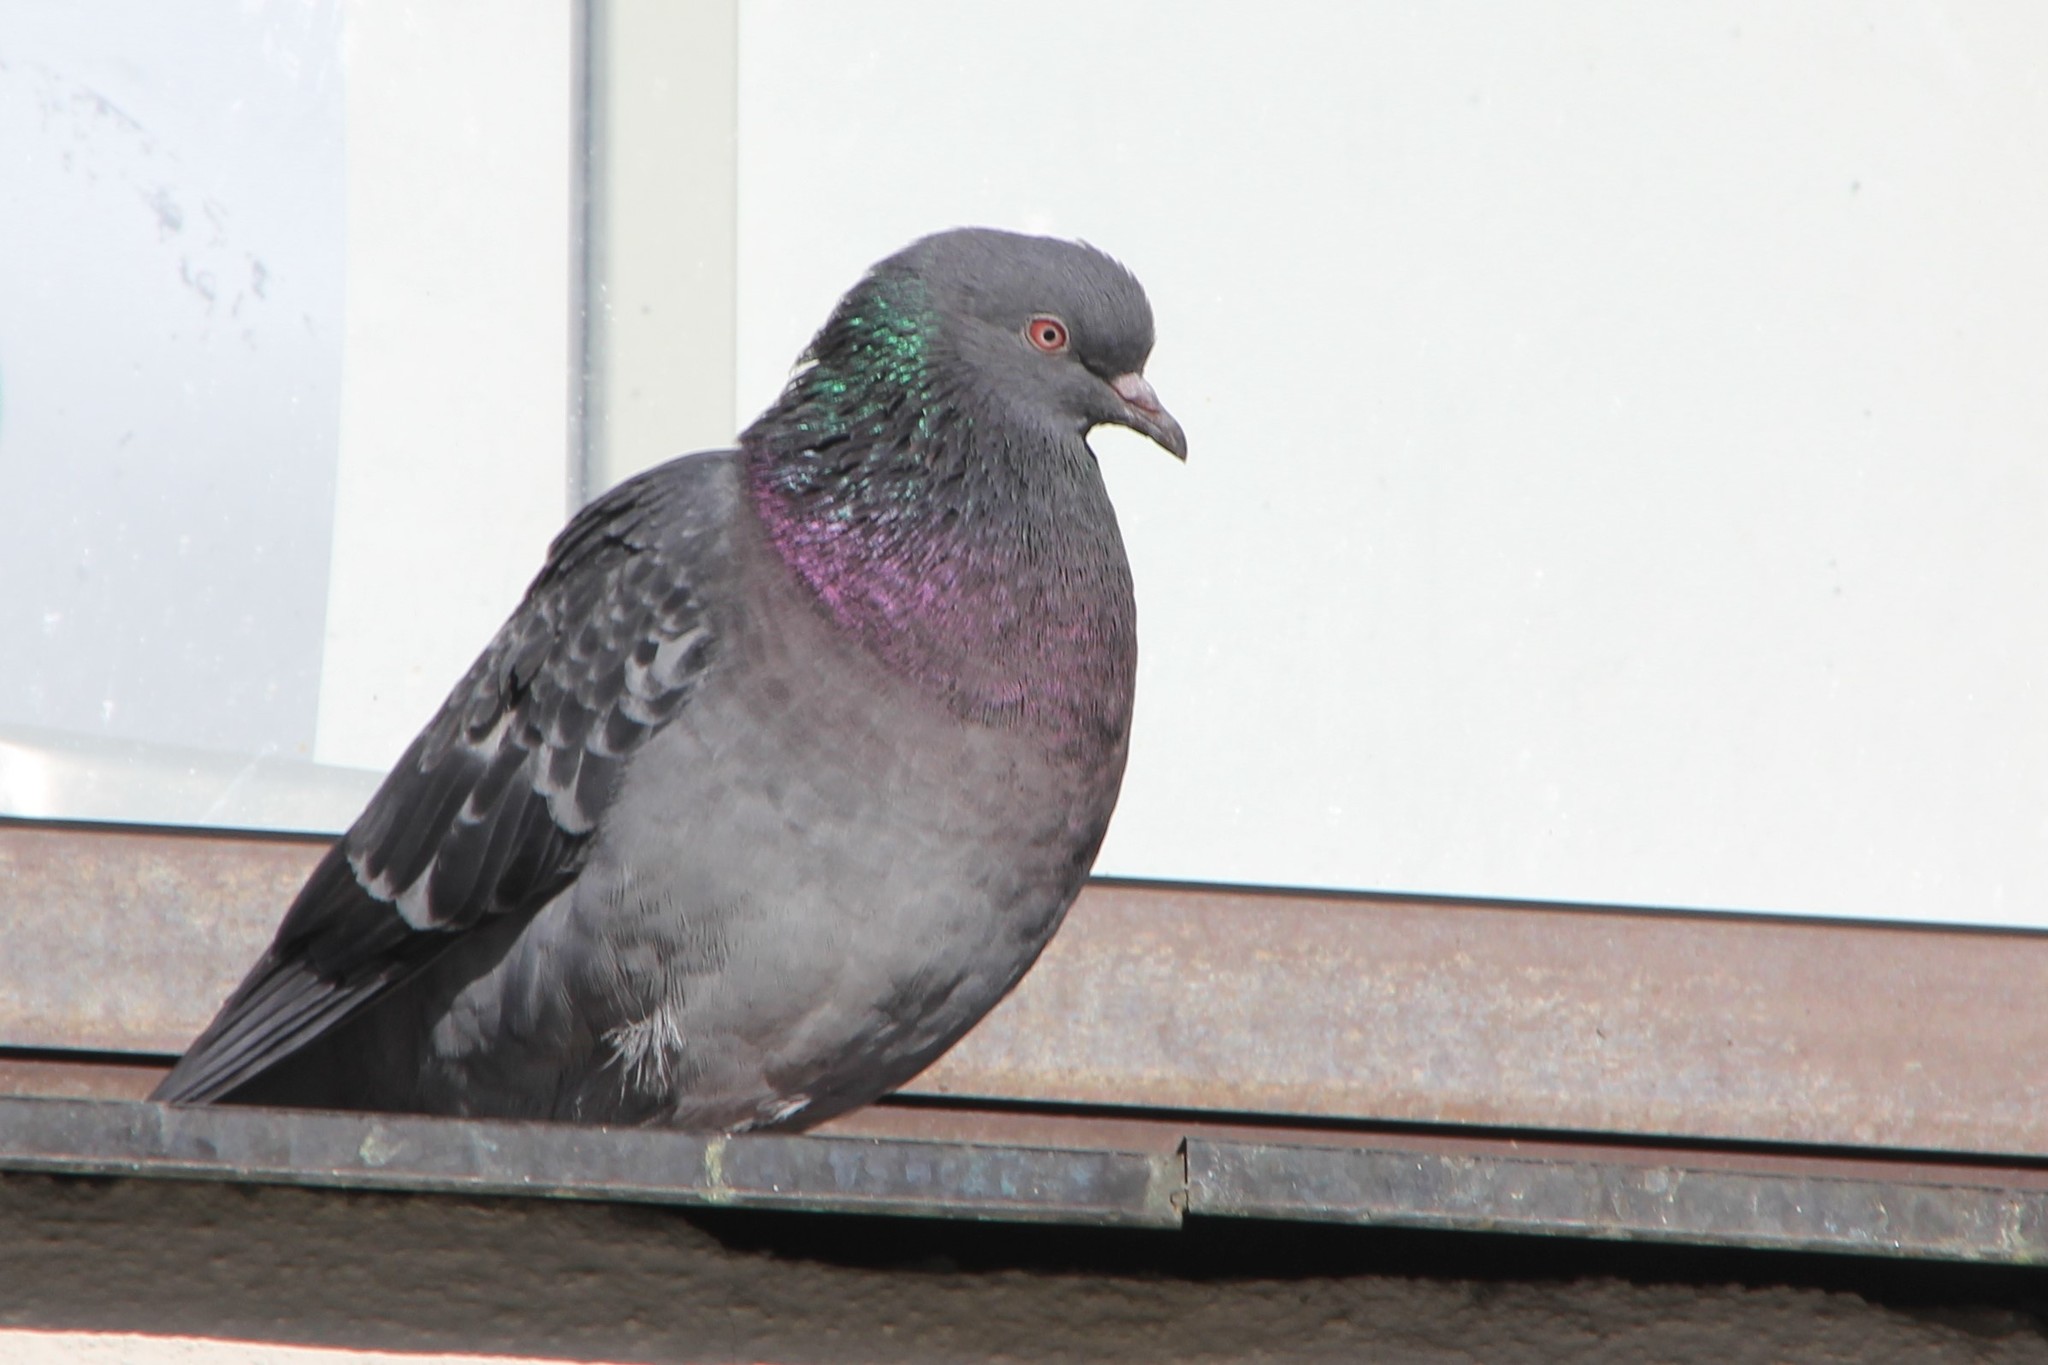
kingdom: Animalia
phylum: Chordata
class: Aves
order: Columbiformes
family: Columbidae
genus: Columba
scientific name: Columba livia
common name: Rock pigeon
